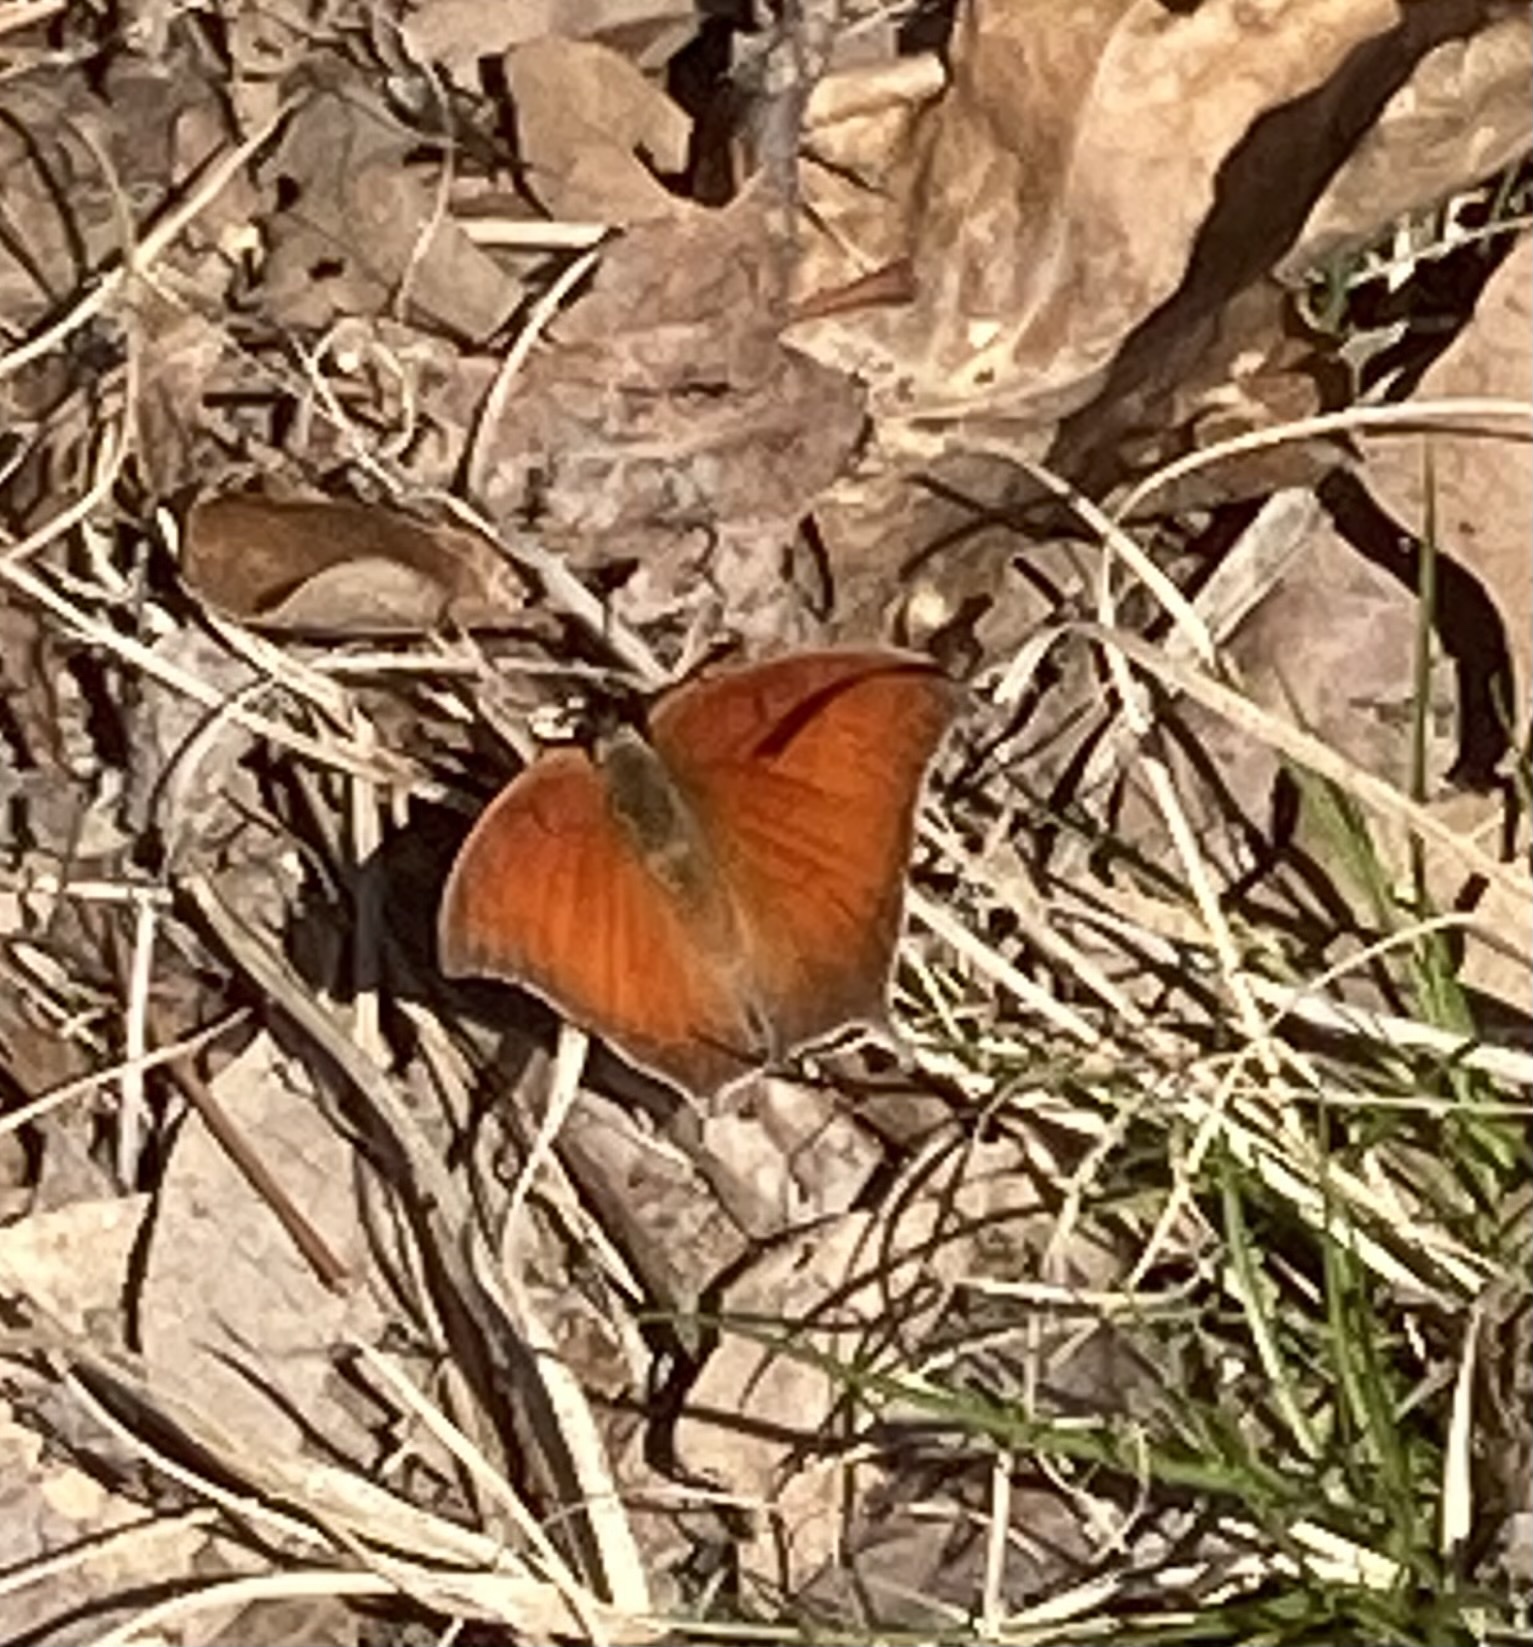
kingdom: Animalia
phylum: Arthropoda
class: Insecta
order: Lepidoptera
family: Nymphalidae
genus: Anaea
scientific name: Anaea andria
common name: Goatweed leafwing
